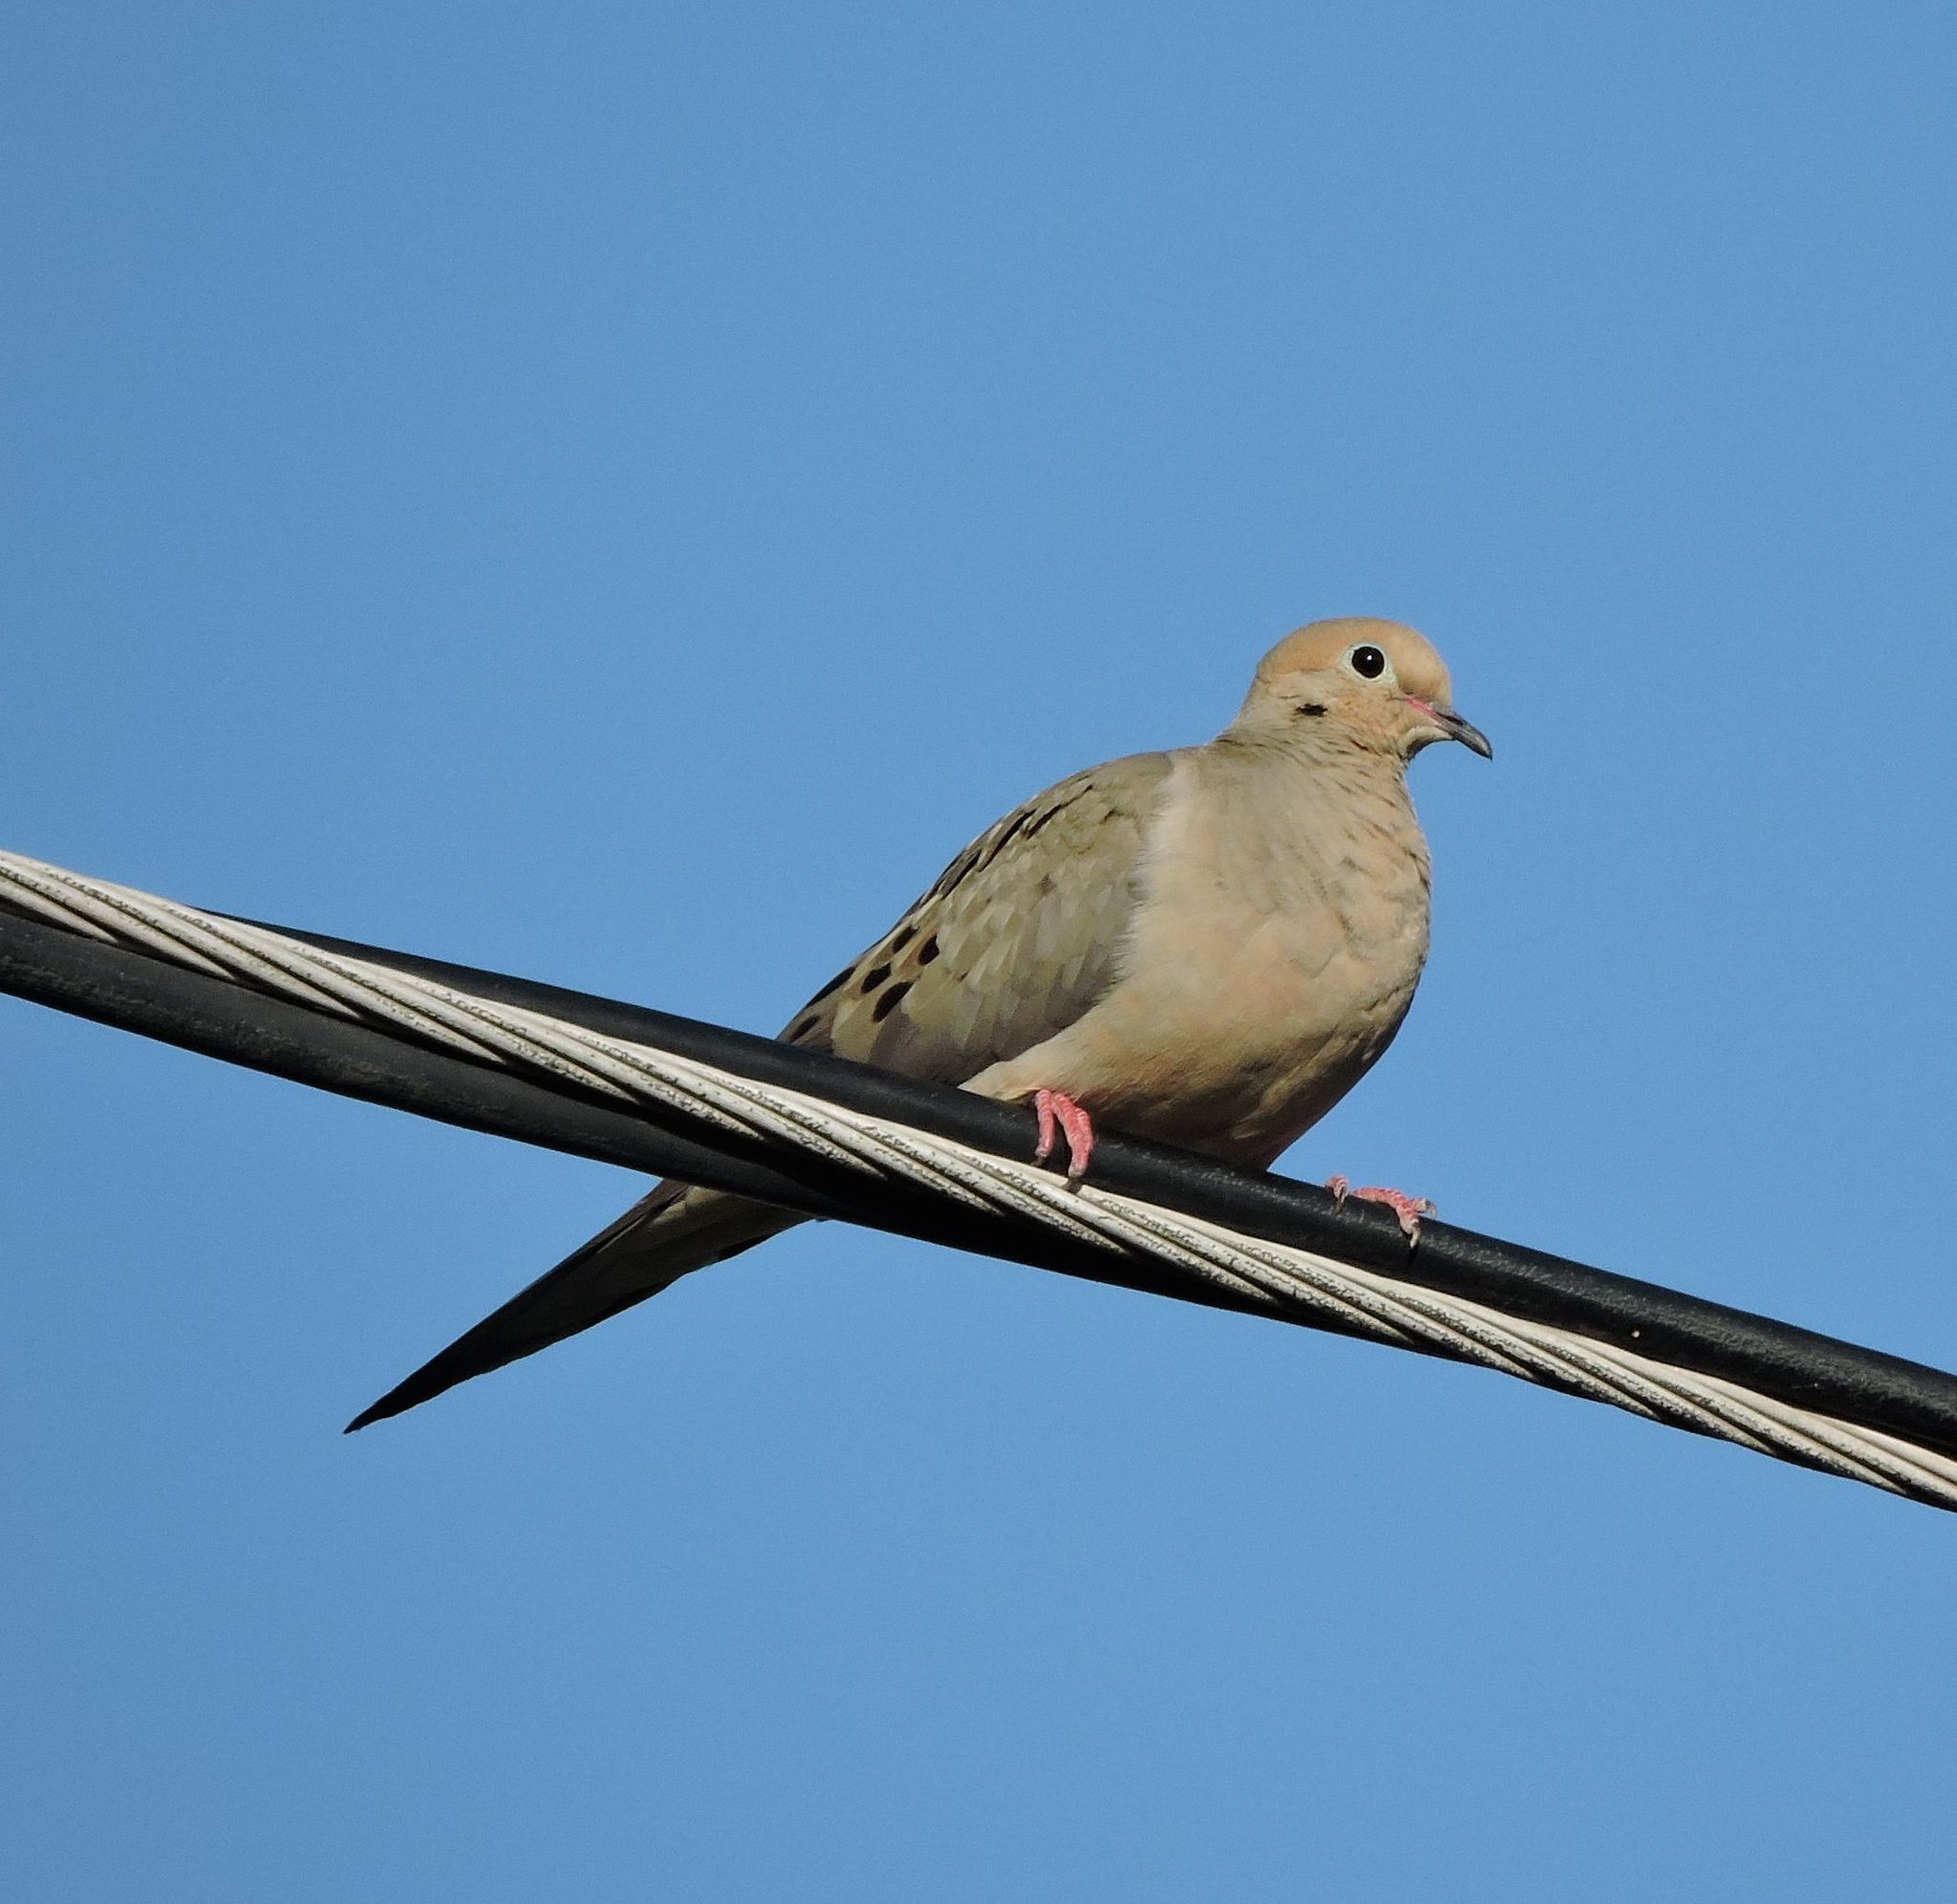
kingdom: Animalia
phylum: Chordata
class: Aves
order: Columbiformes
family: Columbidae
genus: Zenaida
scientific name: Zenaida macroura
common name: Mourning dove
